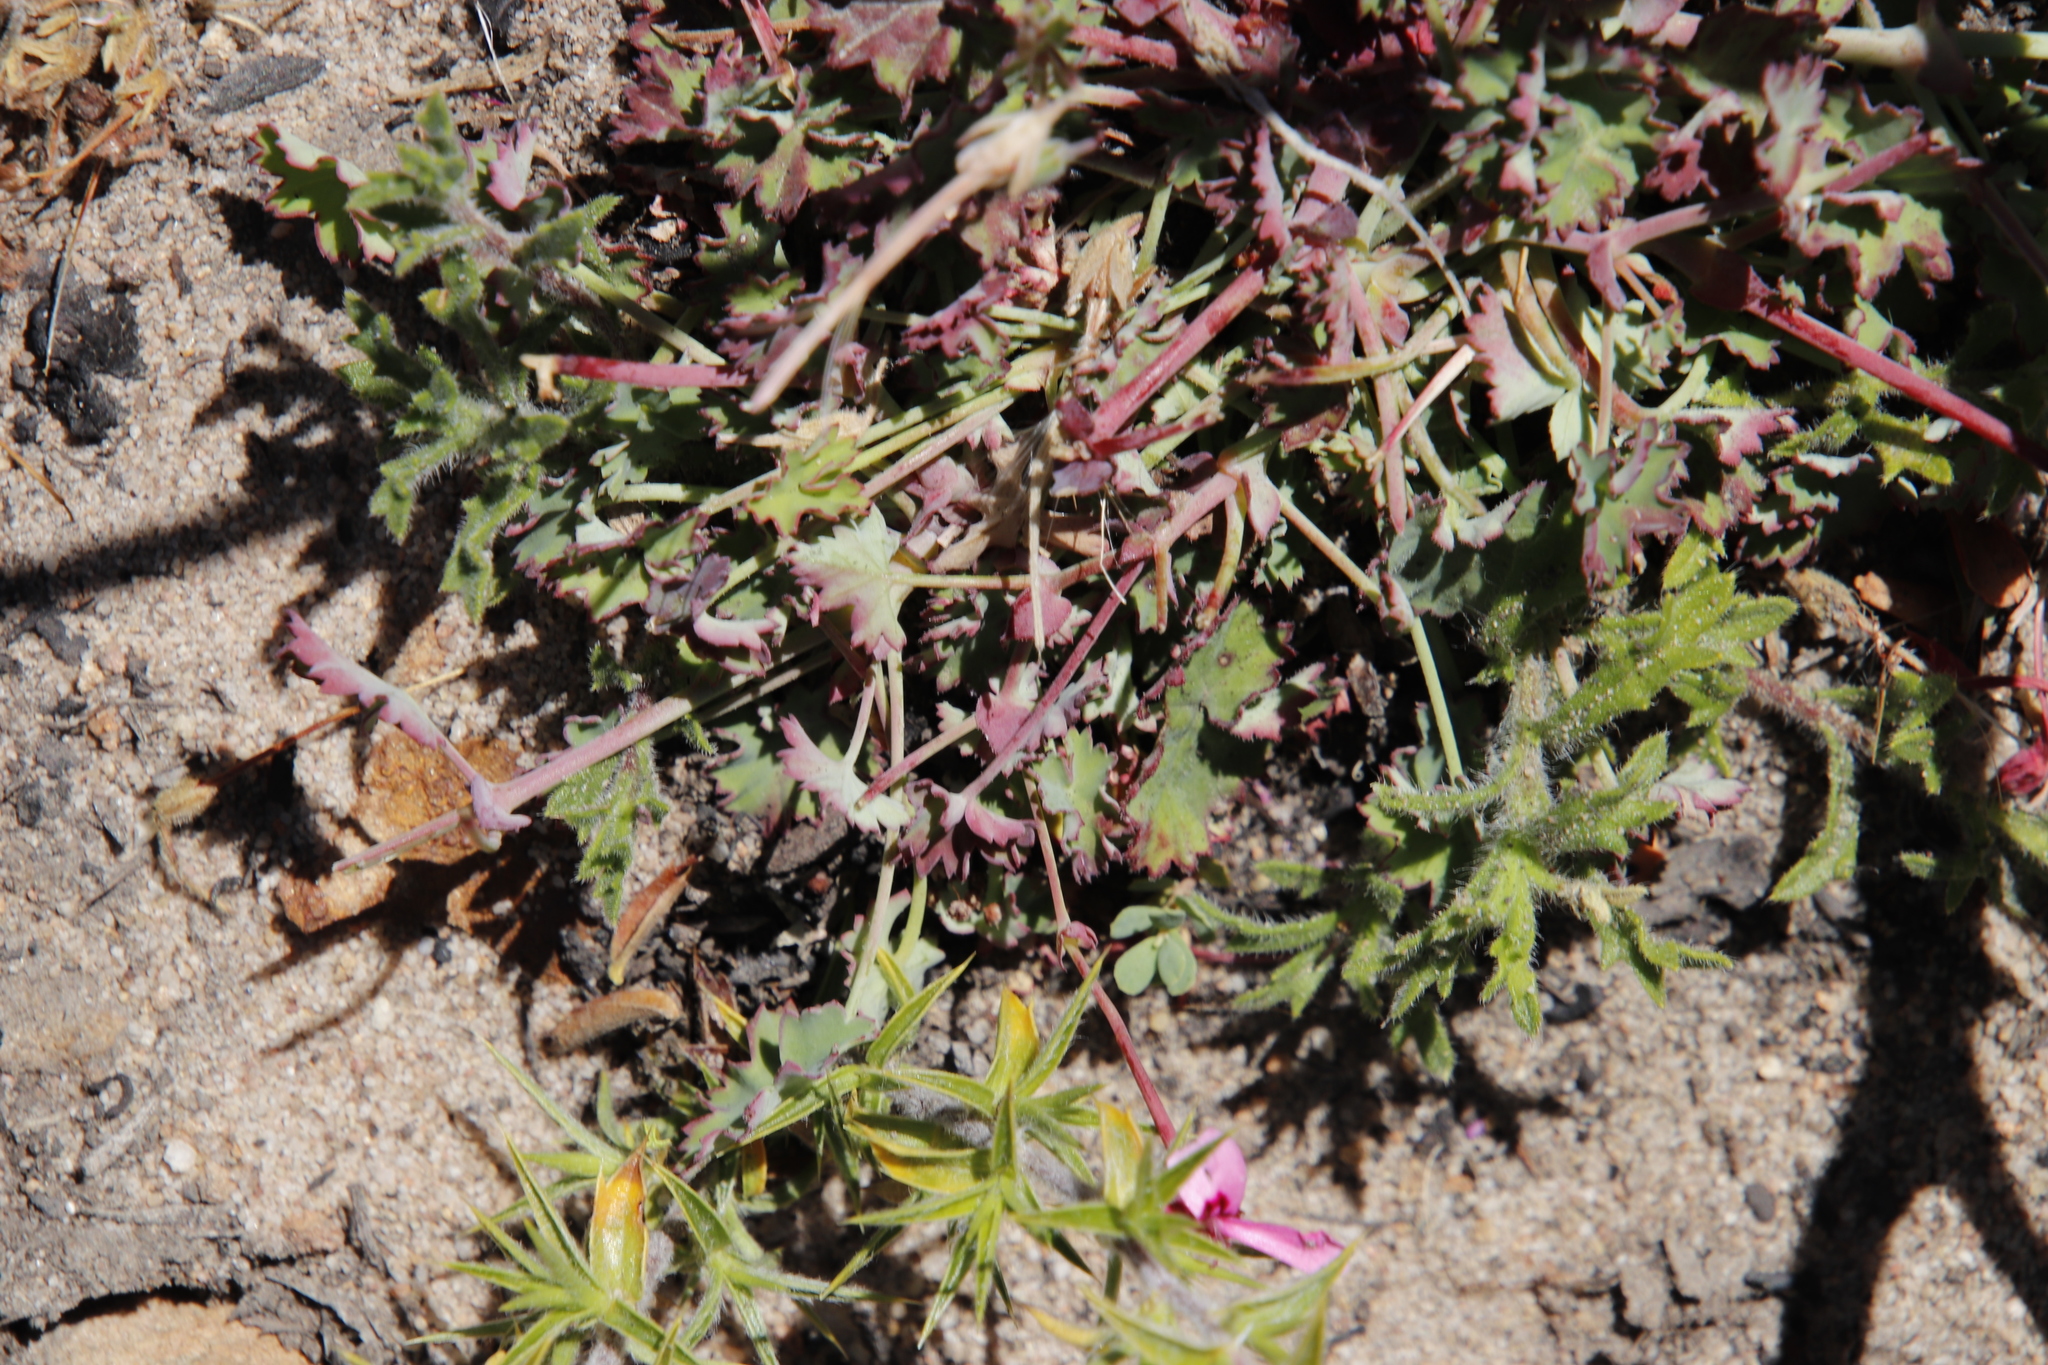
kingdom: Plantae
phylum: Tracheophyta
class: Magnoliopsida
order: Geraniales
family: Geraniaceae
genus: Pelargonium
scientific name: Pelargonium patulum
